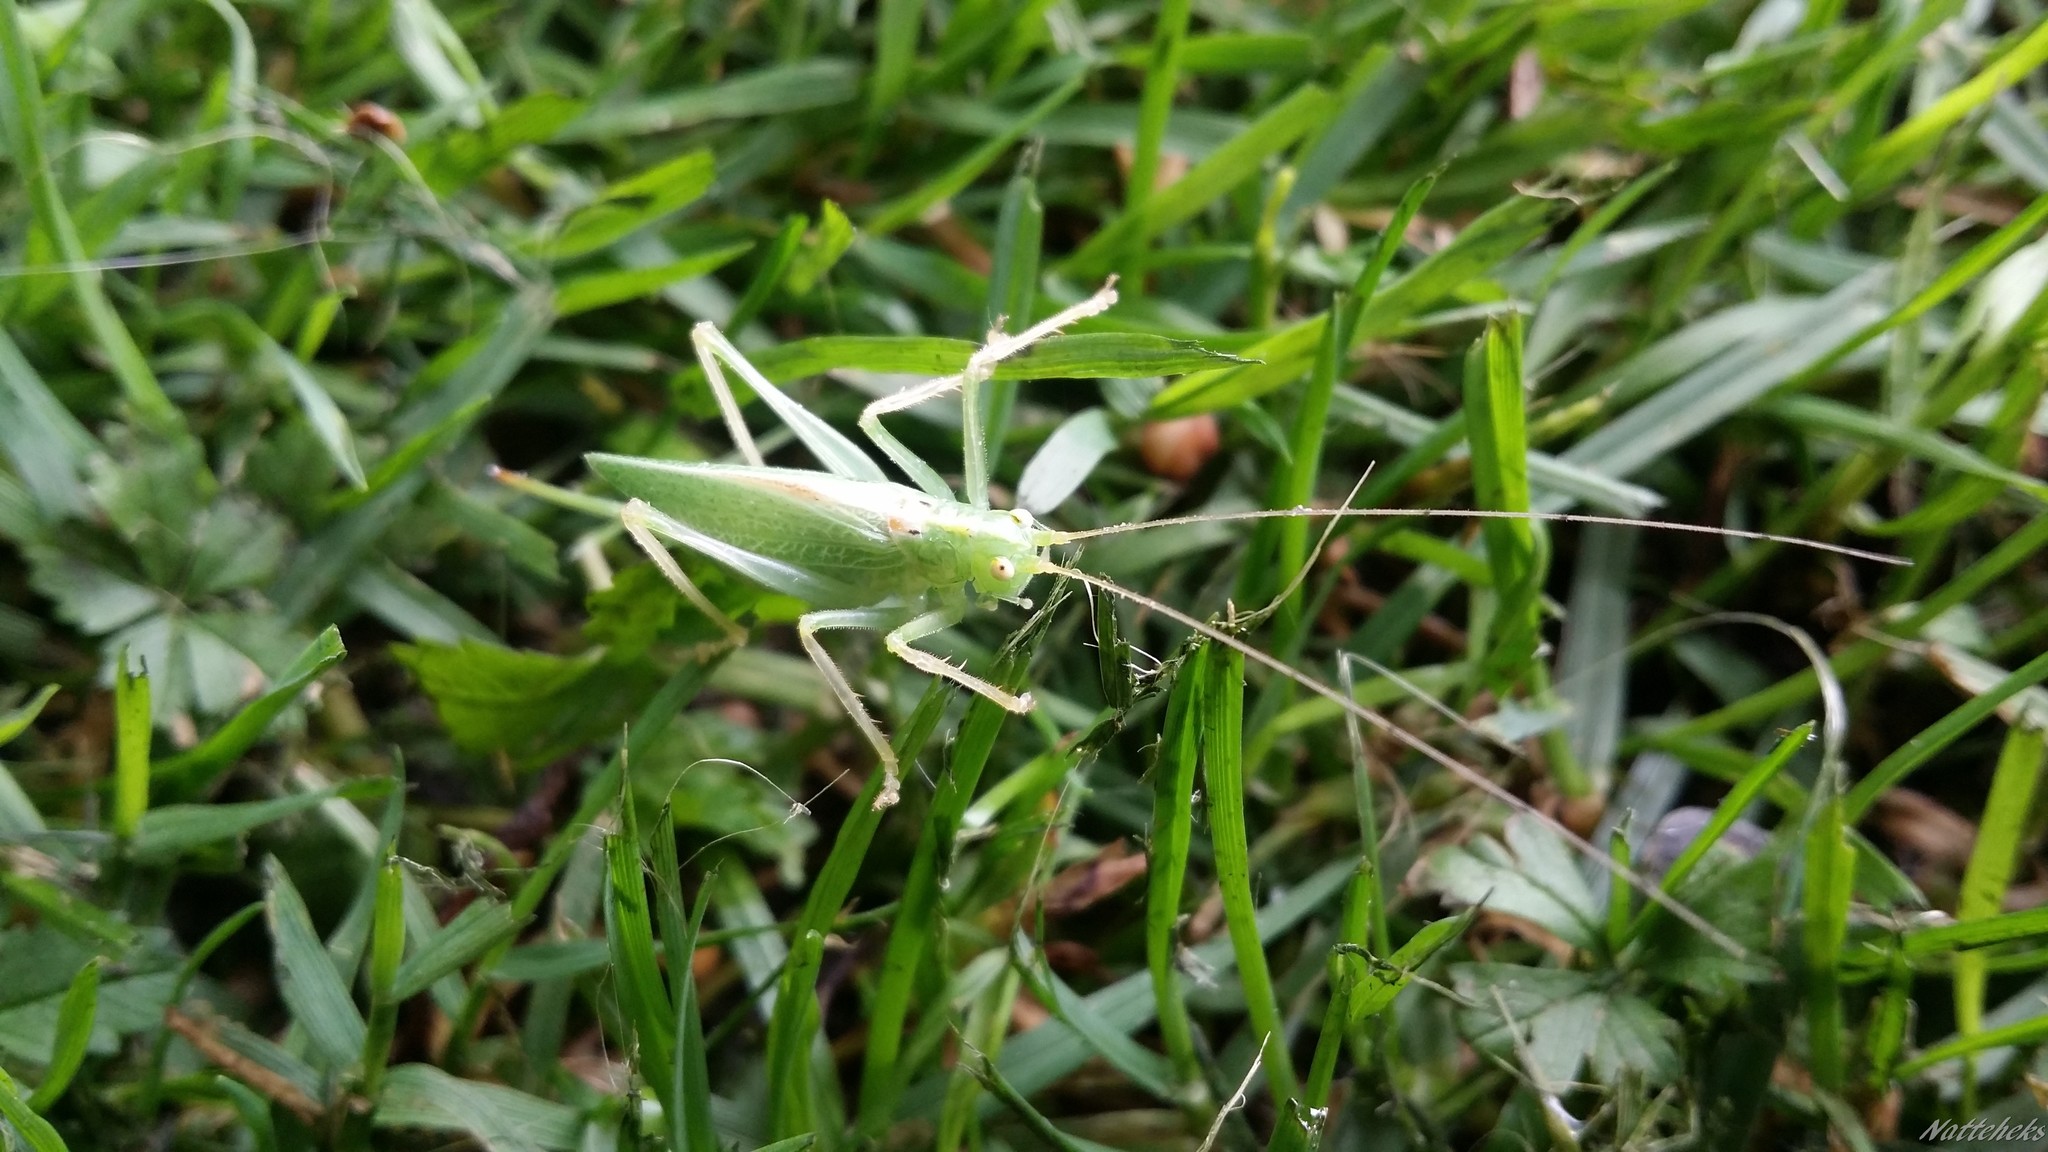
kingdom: Animalia
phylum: Arthropoda
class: Insecta
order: Orthoptera
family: Tettigoniidae
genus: Meconema
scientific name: Meconema thalassinum
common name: Oak bush-cricket
